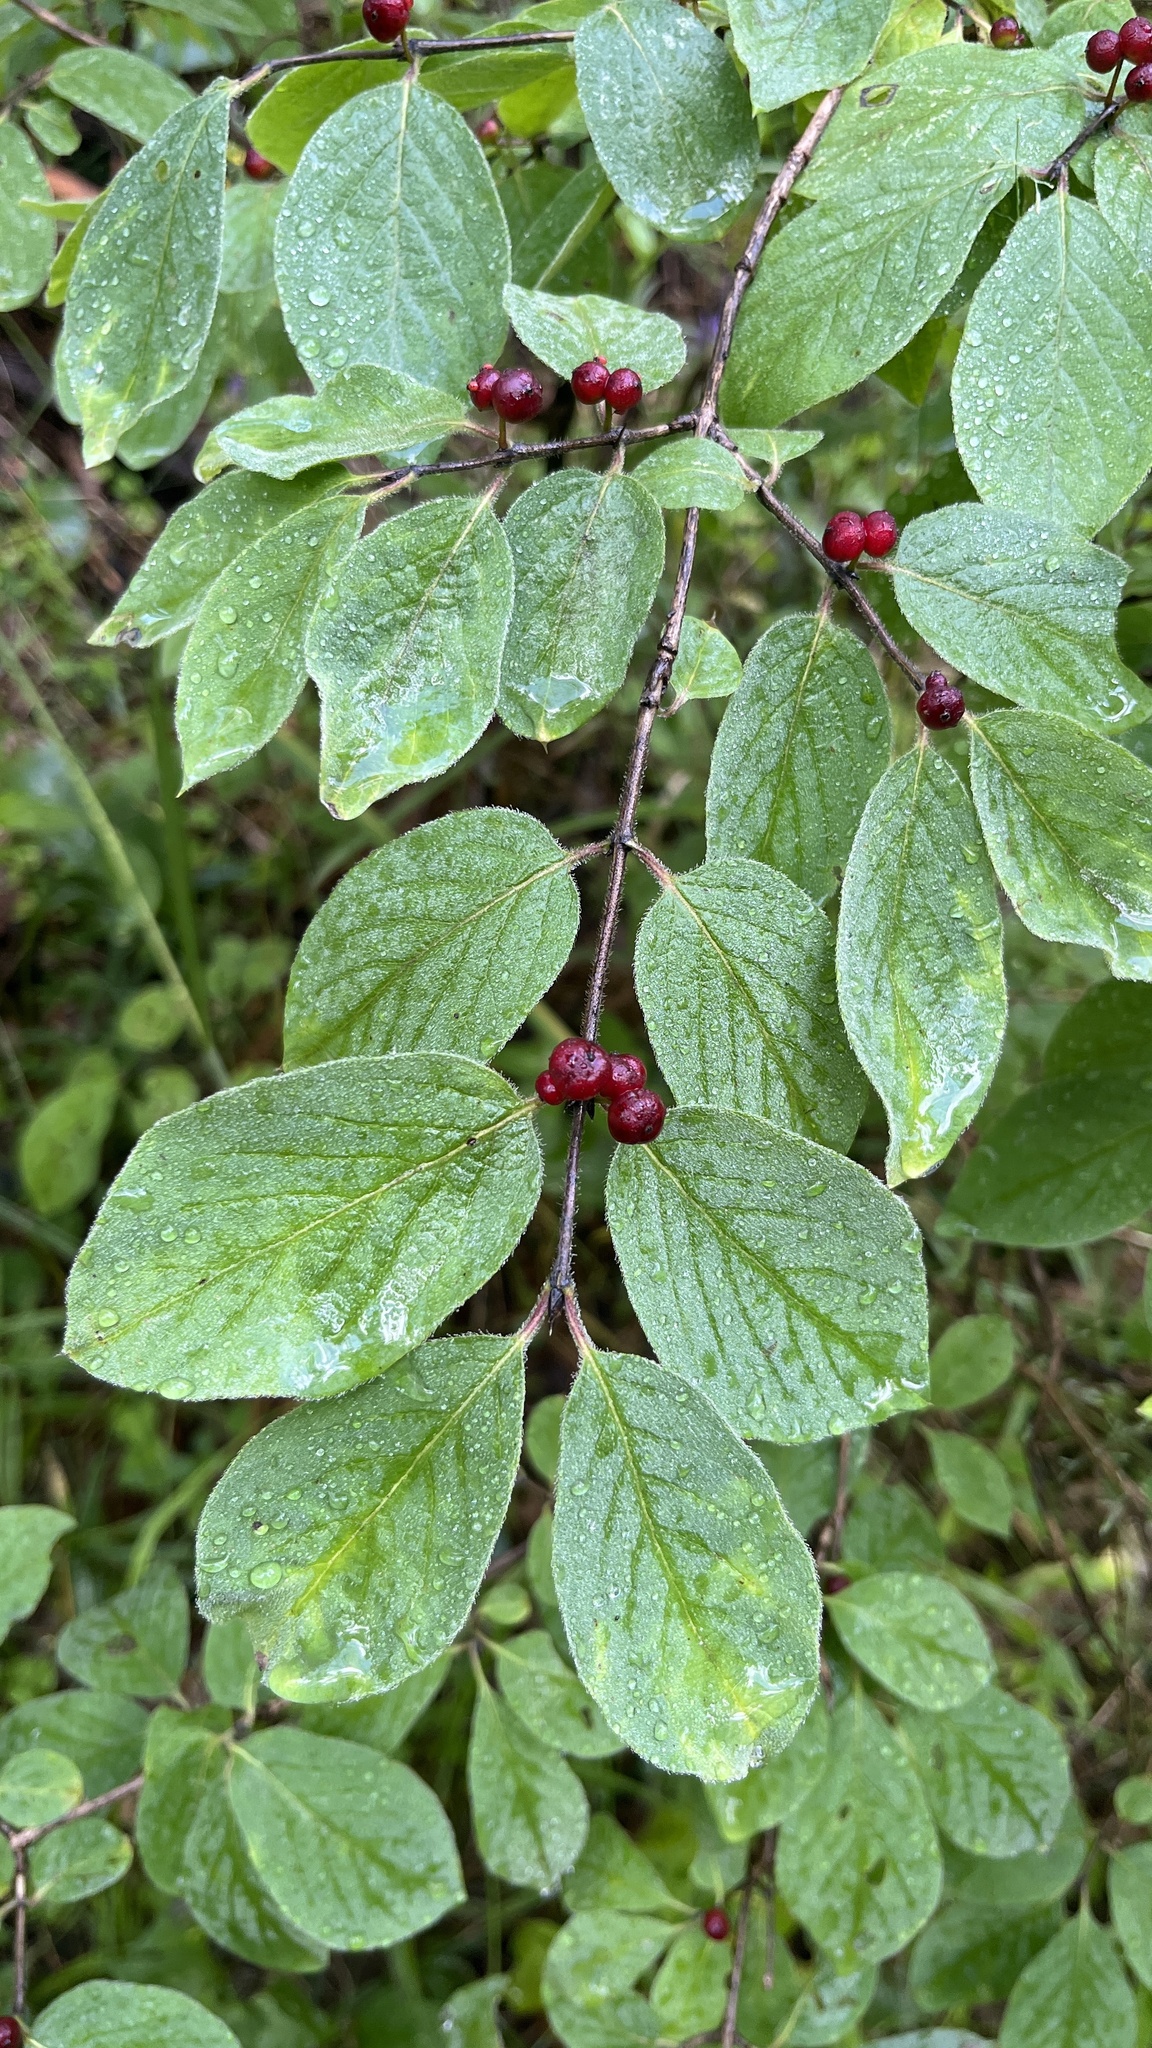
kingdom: Plantae
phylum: Tracheophyta
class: Magnoliopsida
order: Dipsacales
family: Caprifoliaceae
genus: Lonicera
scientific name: Lonicera xylosteum
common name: Fly honeysuckle
